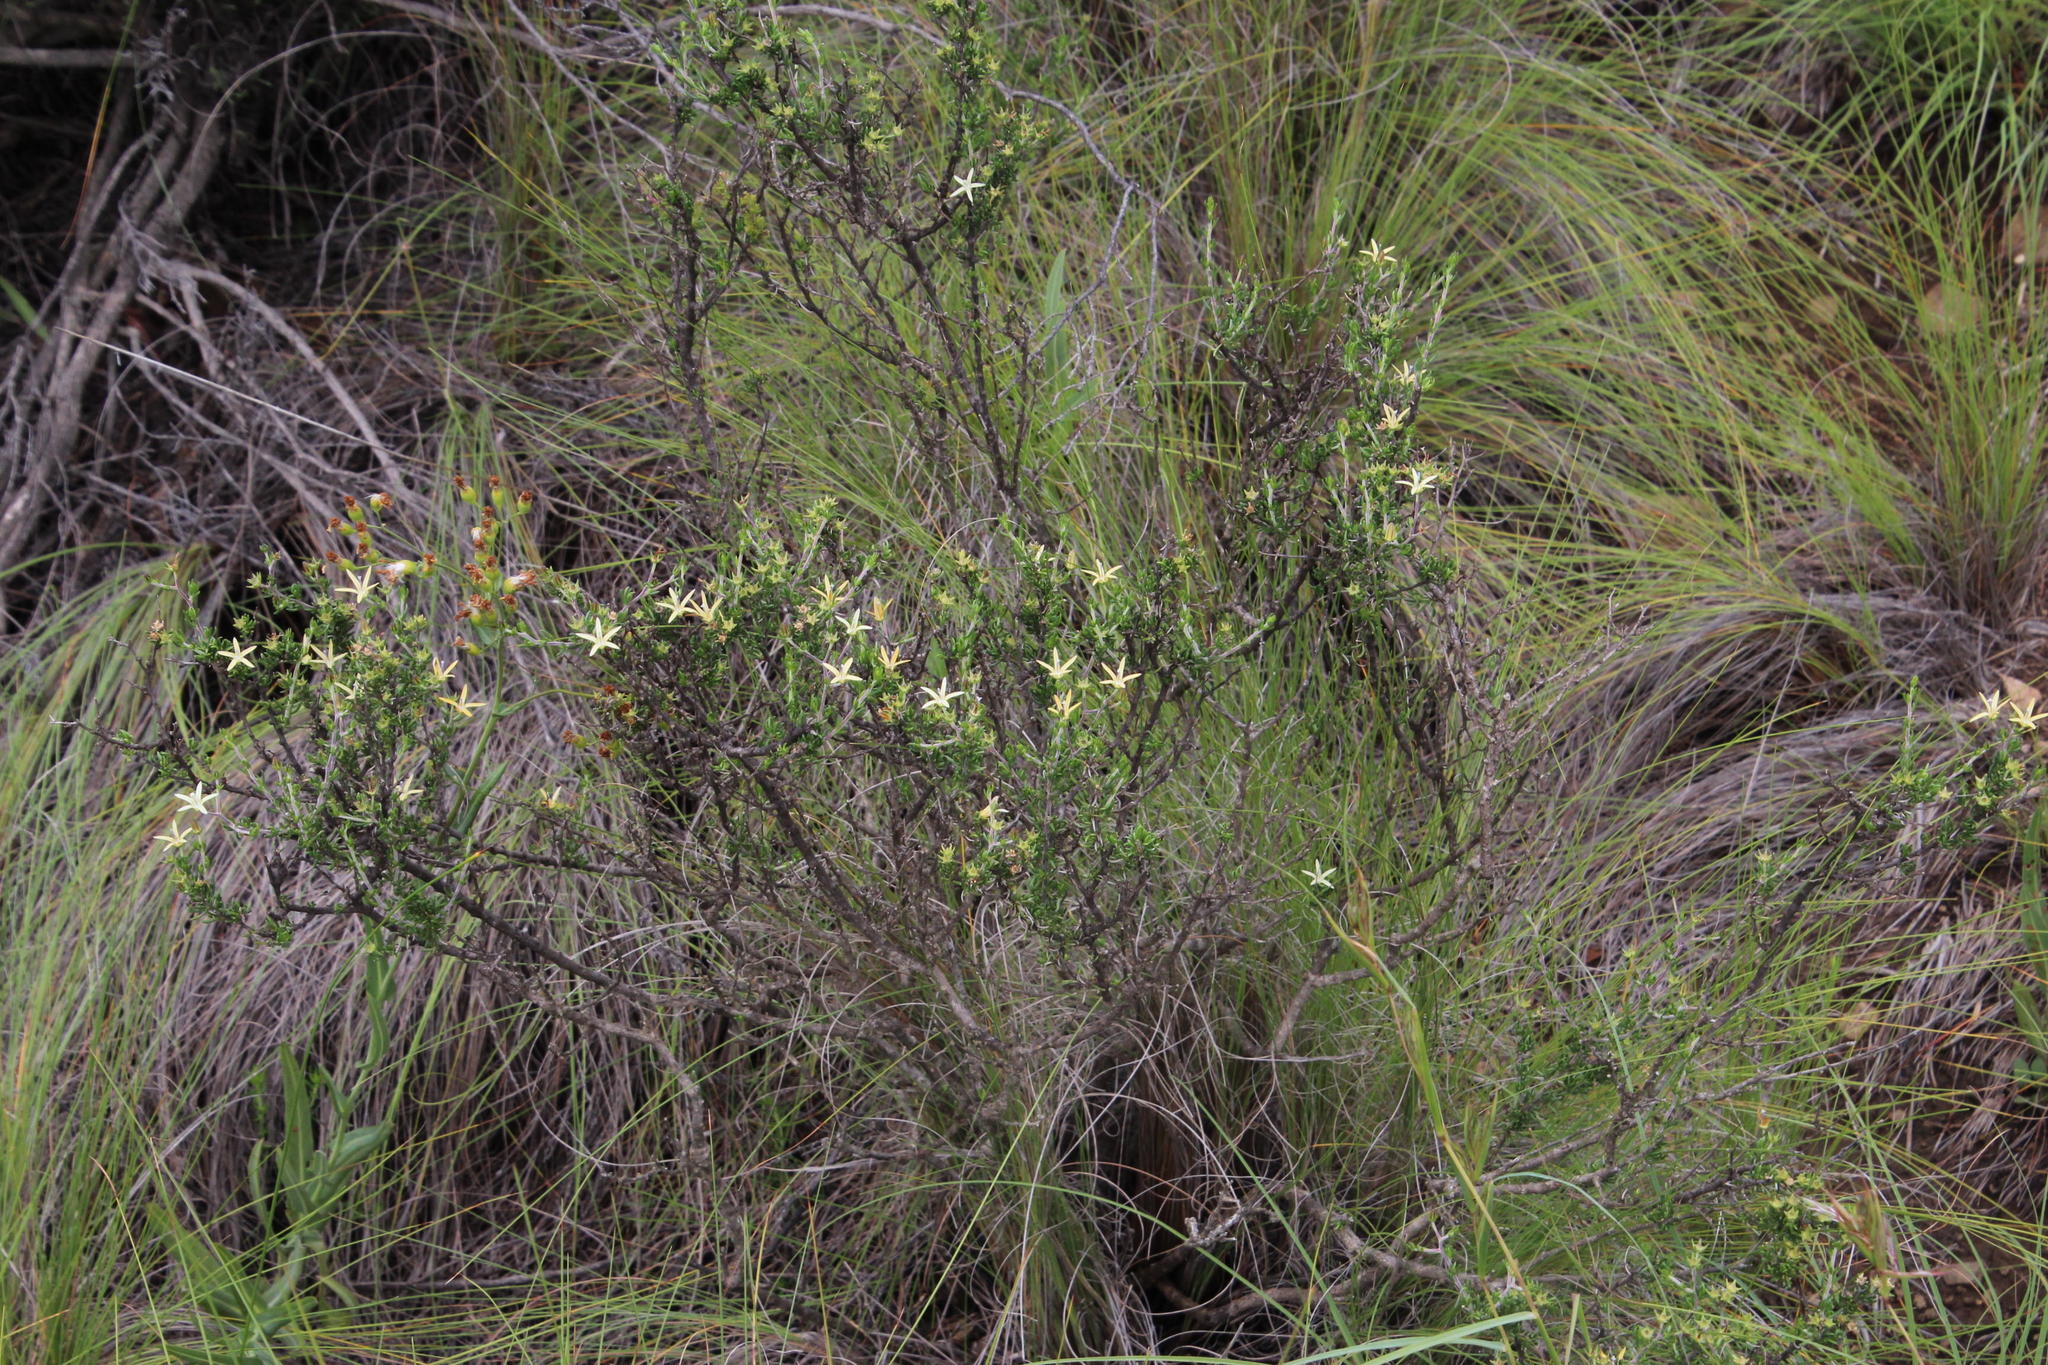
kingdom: Plantae
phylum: Tracheophyta
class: Magnoliopsida
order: Asterales
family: Campanulaceae
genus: Wahlenbergia
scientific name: Wahlenbergia albens
